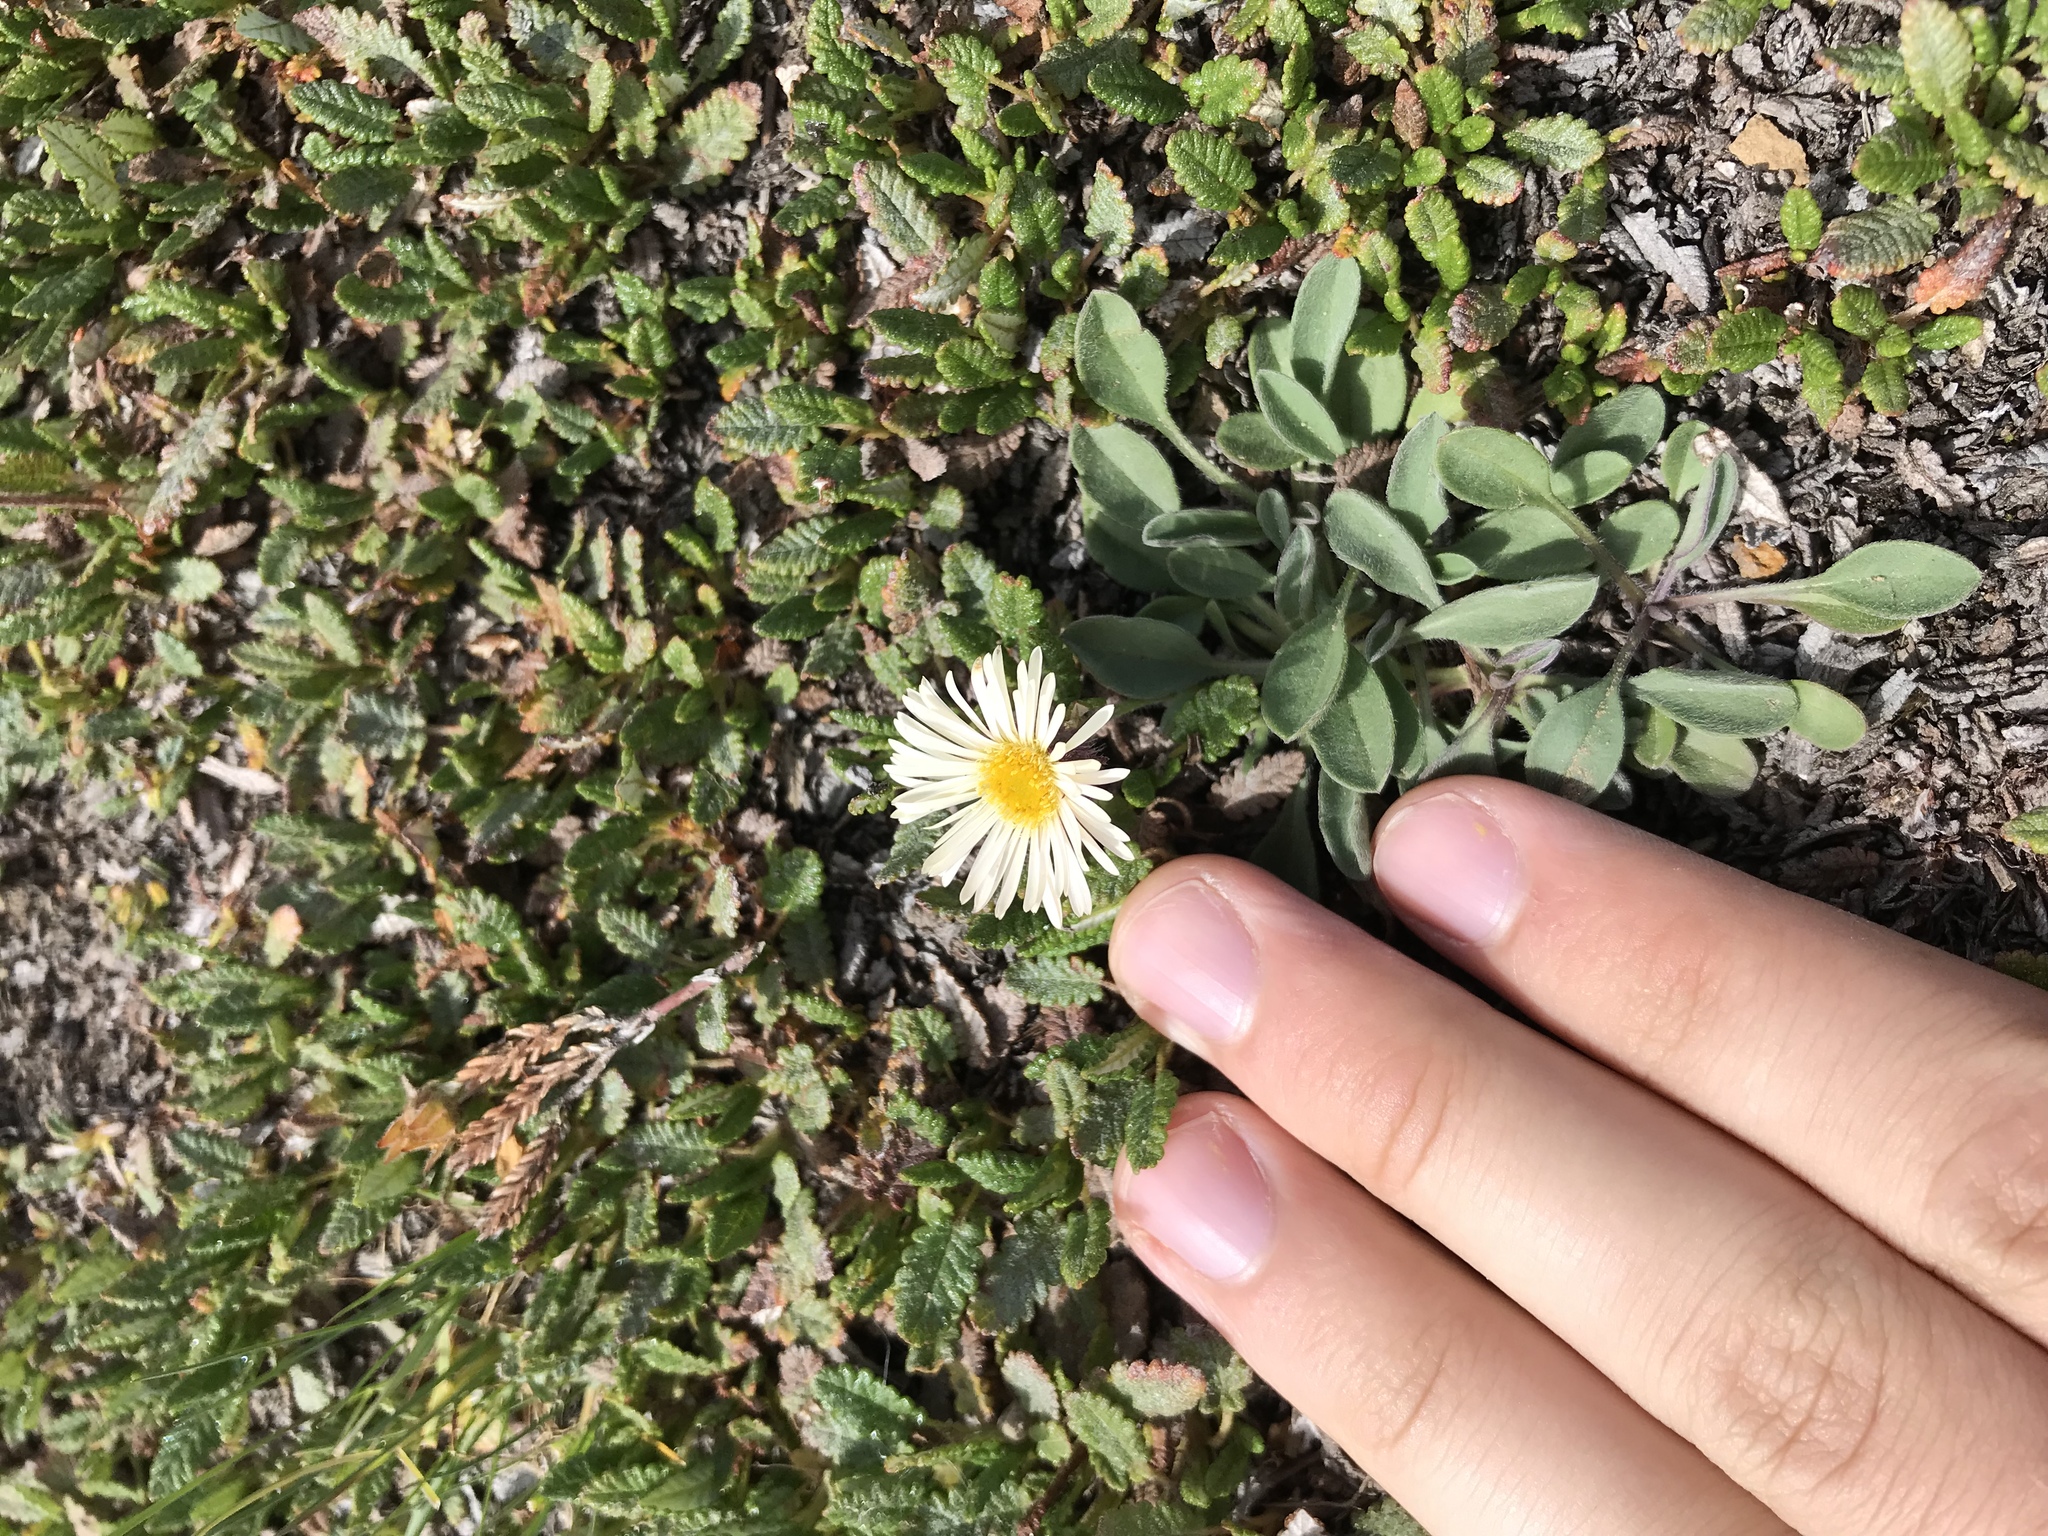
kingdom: Plantae
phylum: Tracheophyta
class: Magnoliopsida
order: Asterales
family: Asteraceae
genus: Erigeron
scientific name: Erigeron humilis
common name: Arctic-alpine fleabane
